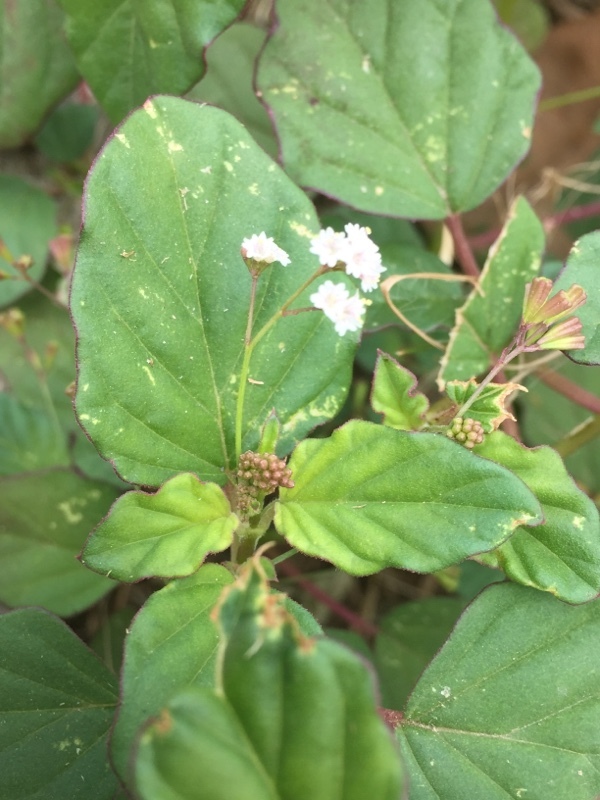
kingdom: Plantae
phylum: Tracheophyta
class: Magnoliopsida
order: Caryophyllales
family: Nyctaginaceae
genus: Boerhavia
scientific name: Boerhavia erecta
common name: Erect spiderling
